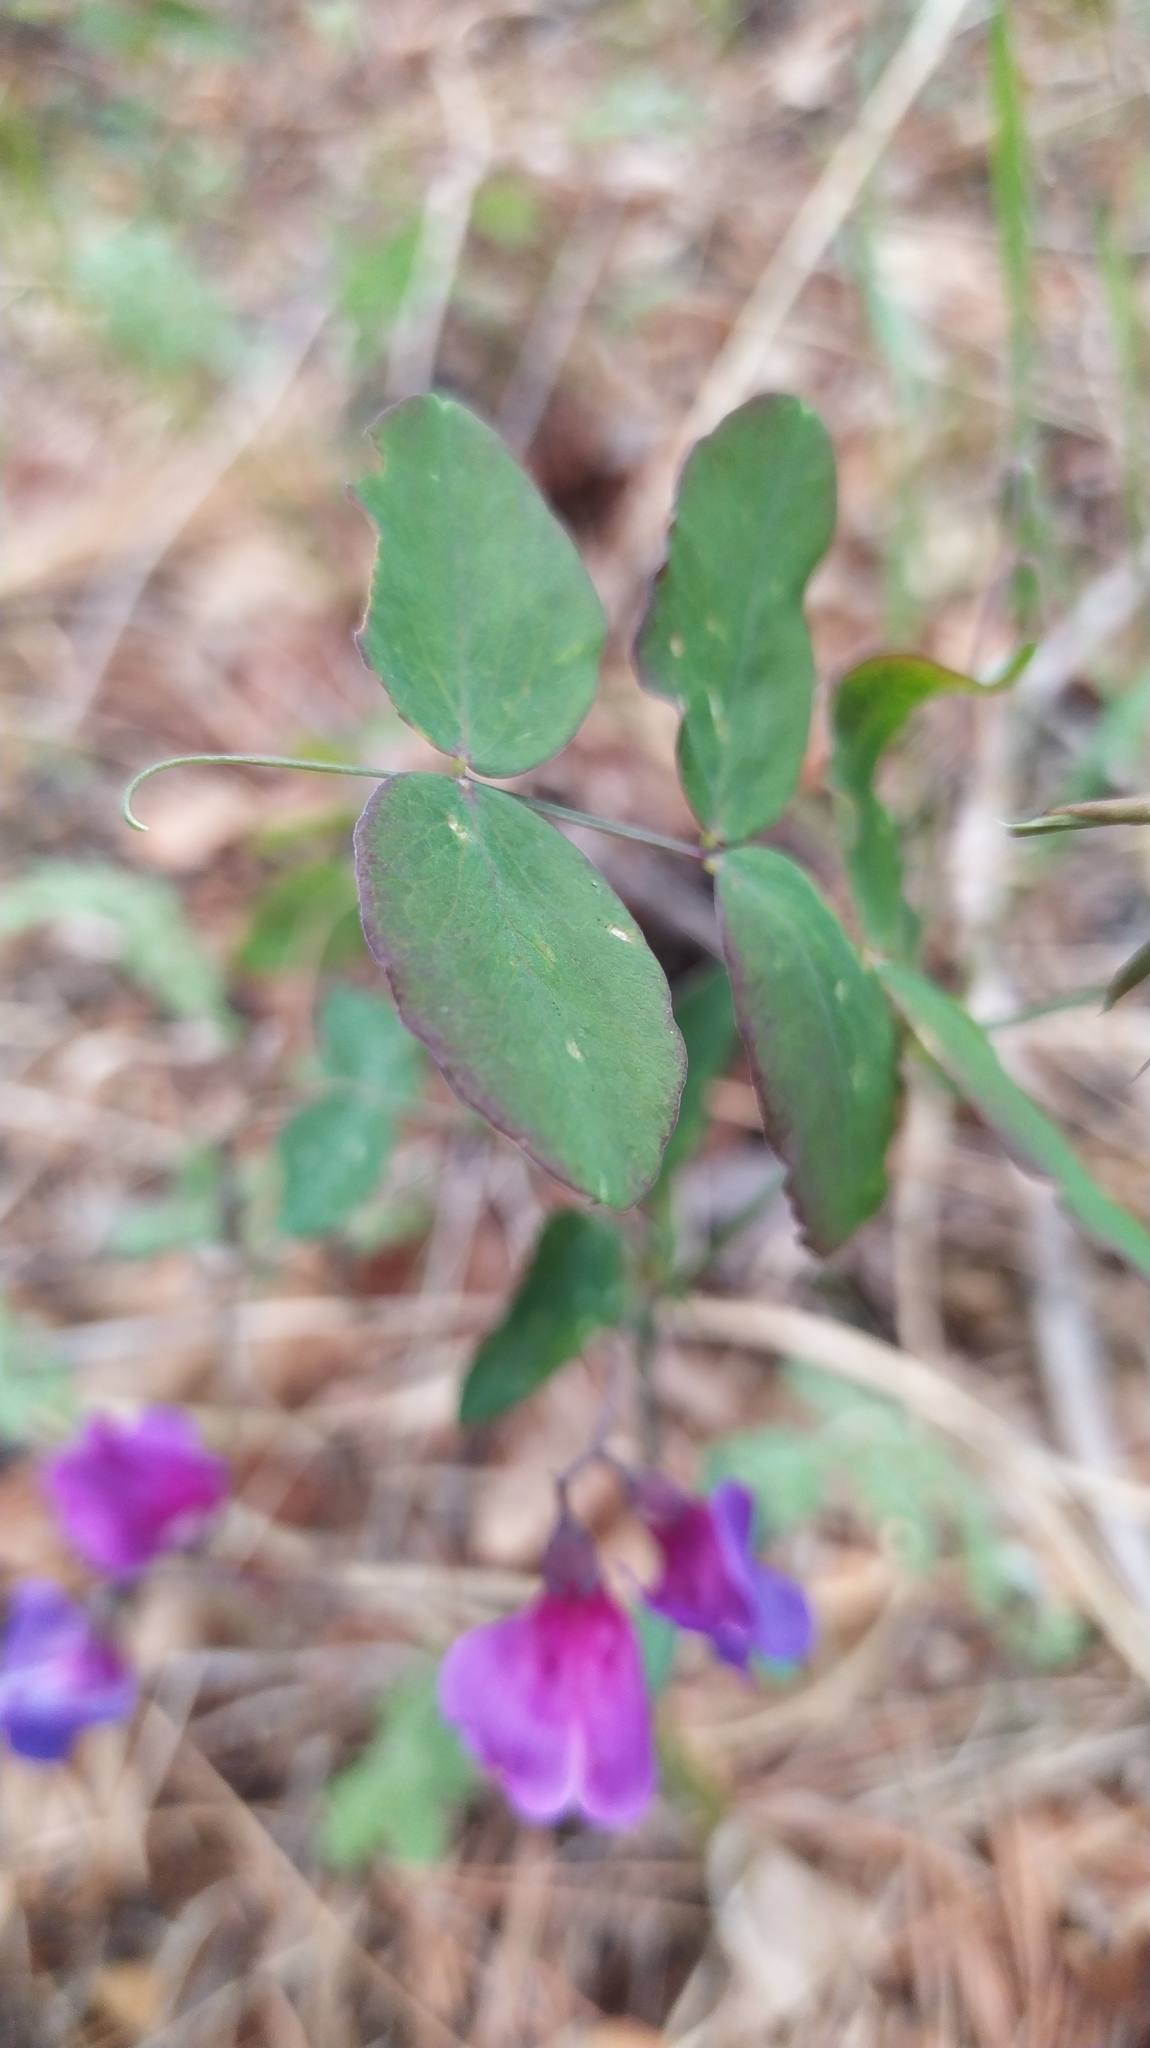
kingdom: Plantae
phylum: Tracheophyta
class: Magnoliopsida
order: Fabales
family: Fabaceae
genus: Lathyrus
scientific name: Lathyrus humilis
